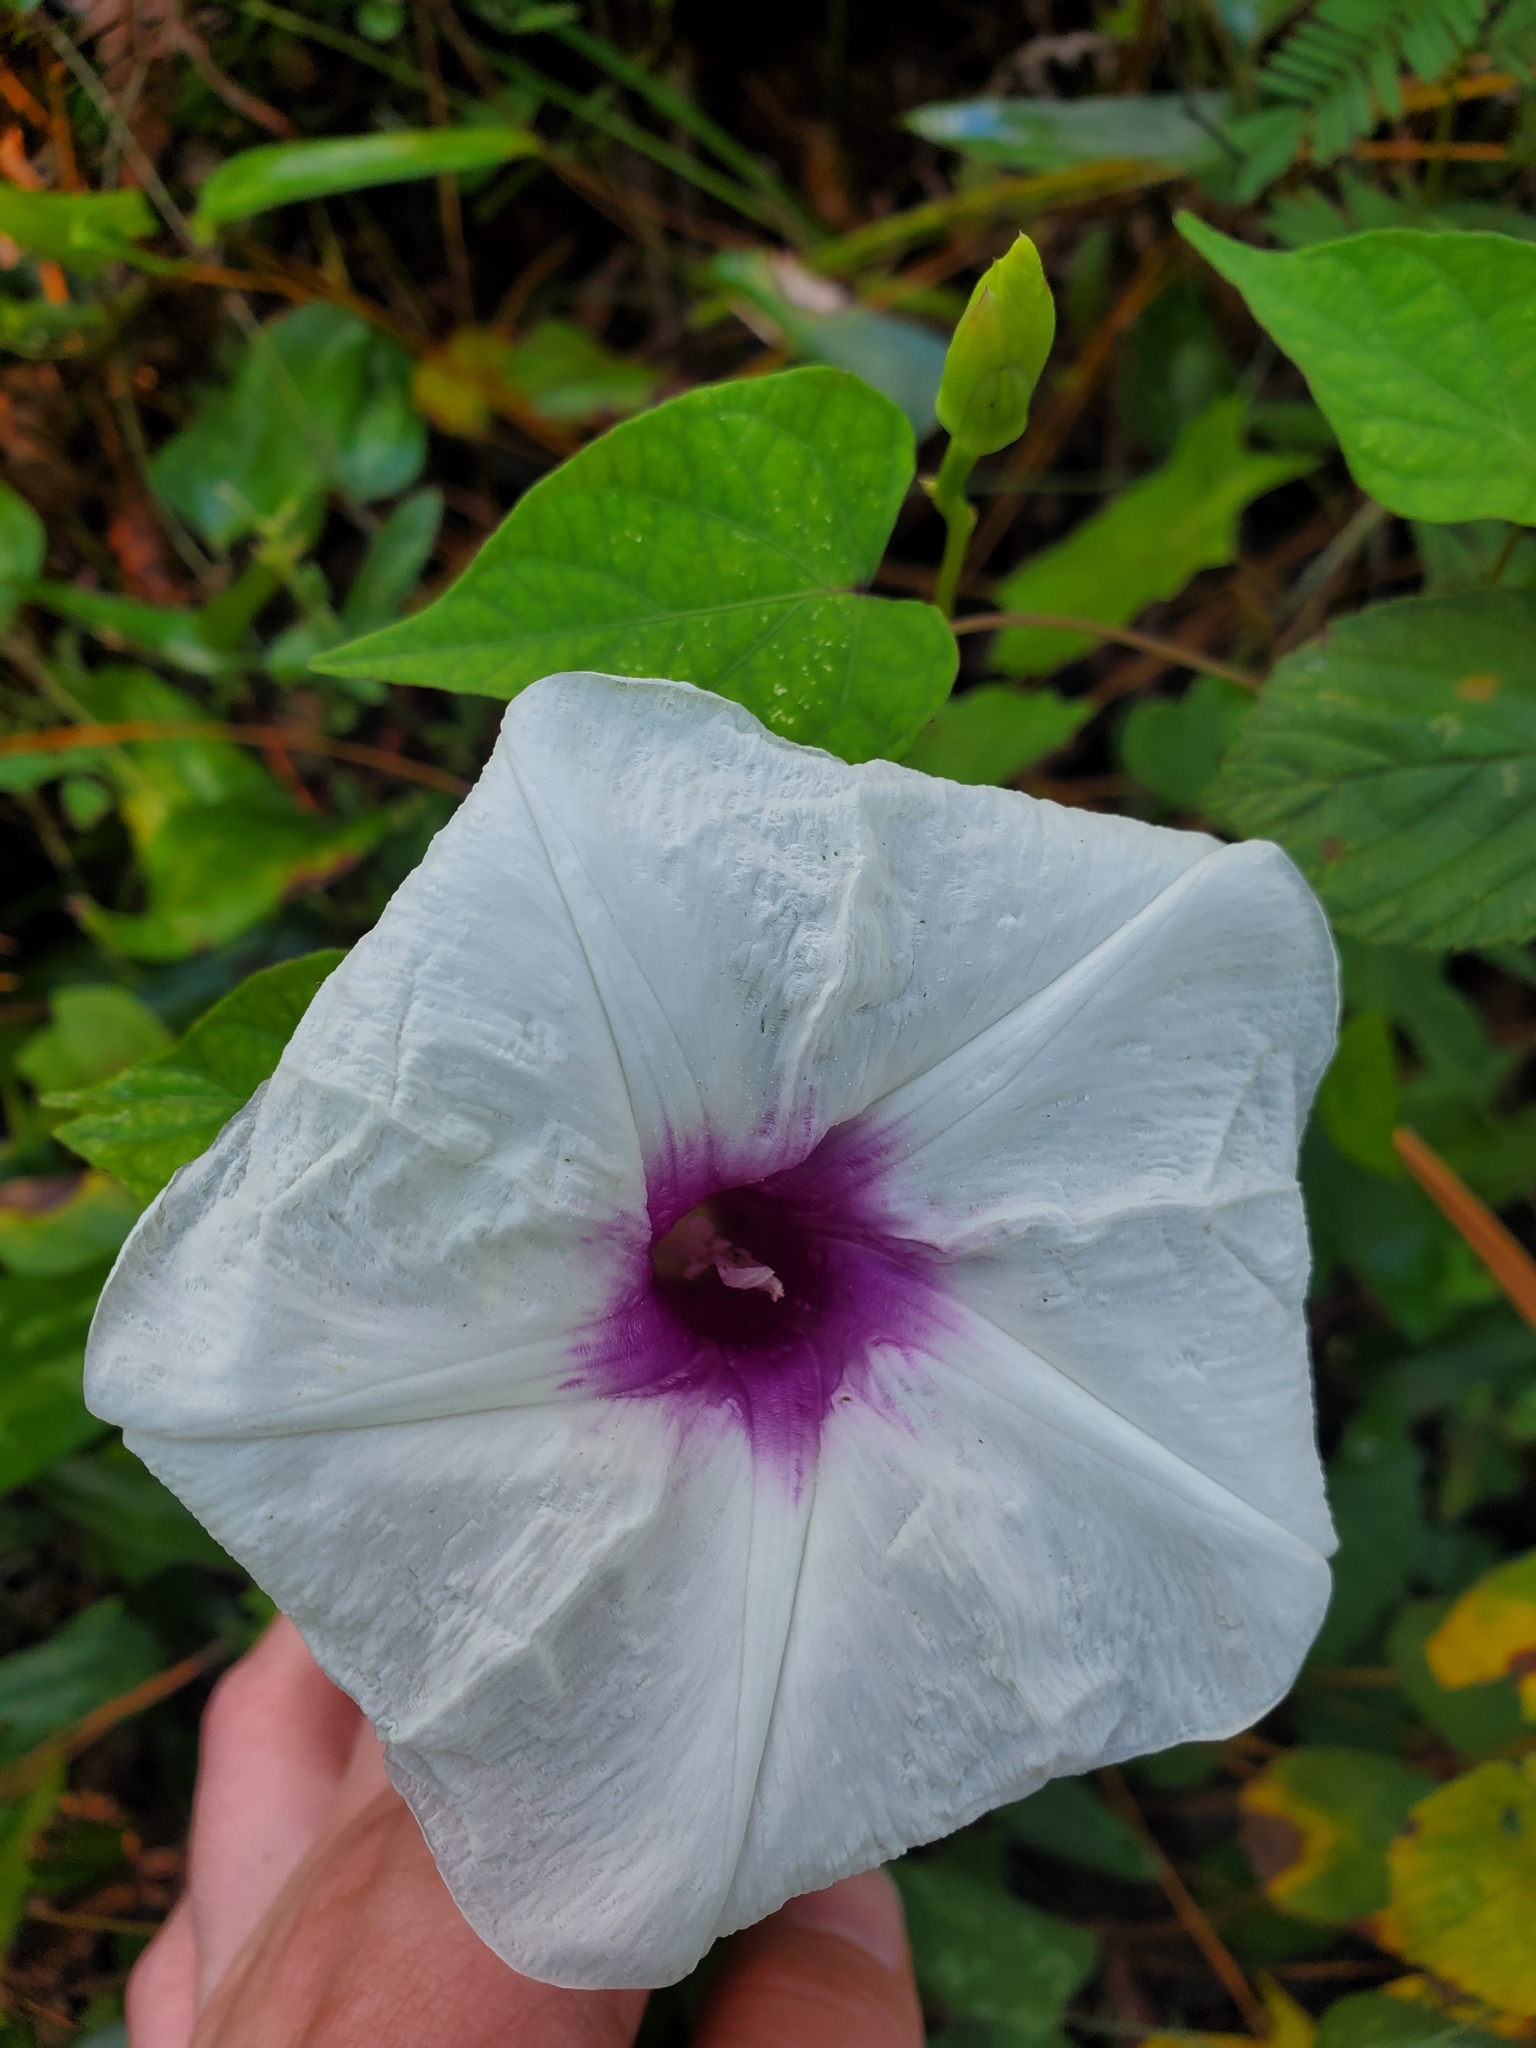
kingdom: Plantae
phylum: Tracheophyta
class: Magnoliopsida
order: Solanales
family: Convolvulaceae
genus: Ipomoea
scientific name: Ipomoea pandurata
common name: Man-of-the-earth
